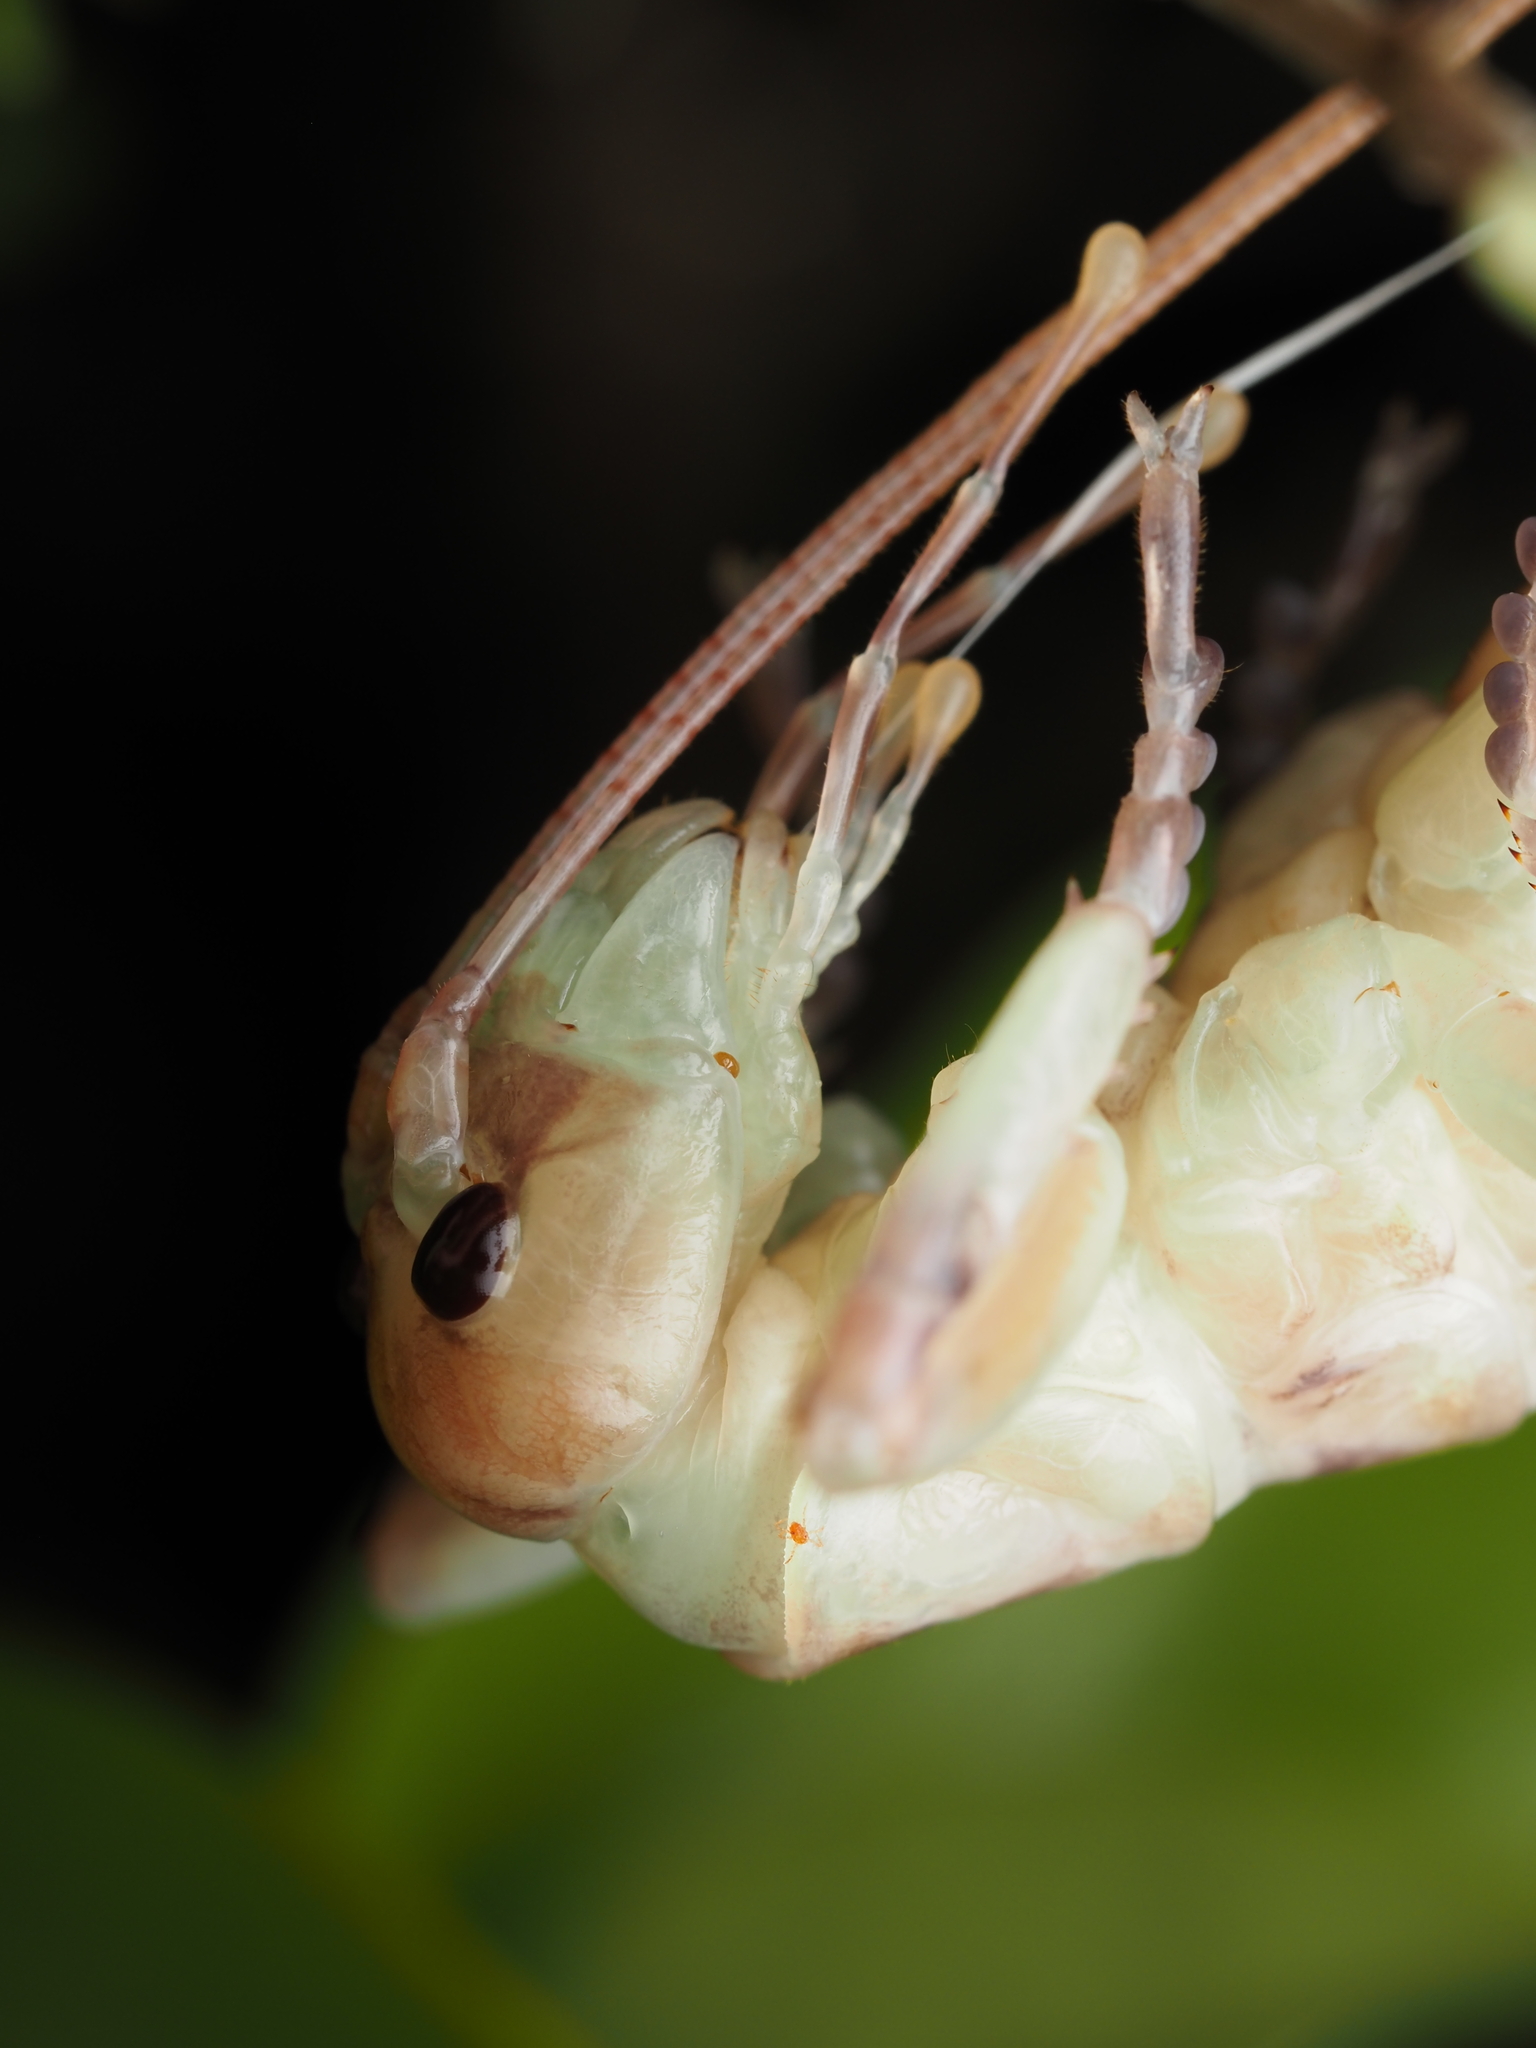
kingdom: Animalia
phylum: Arthropoda
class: Insecta
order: Orthoptera
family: Anostostomatidae
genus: Hemideina
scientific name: Hemideina crassidens
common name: Wellington tree weta
